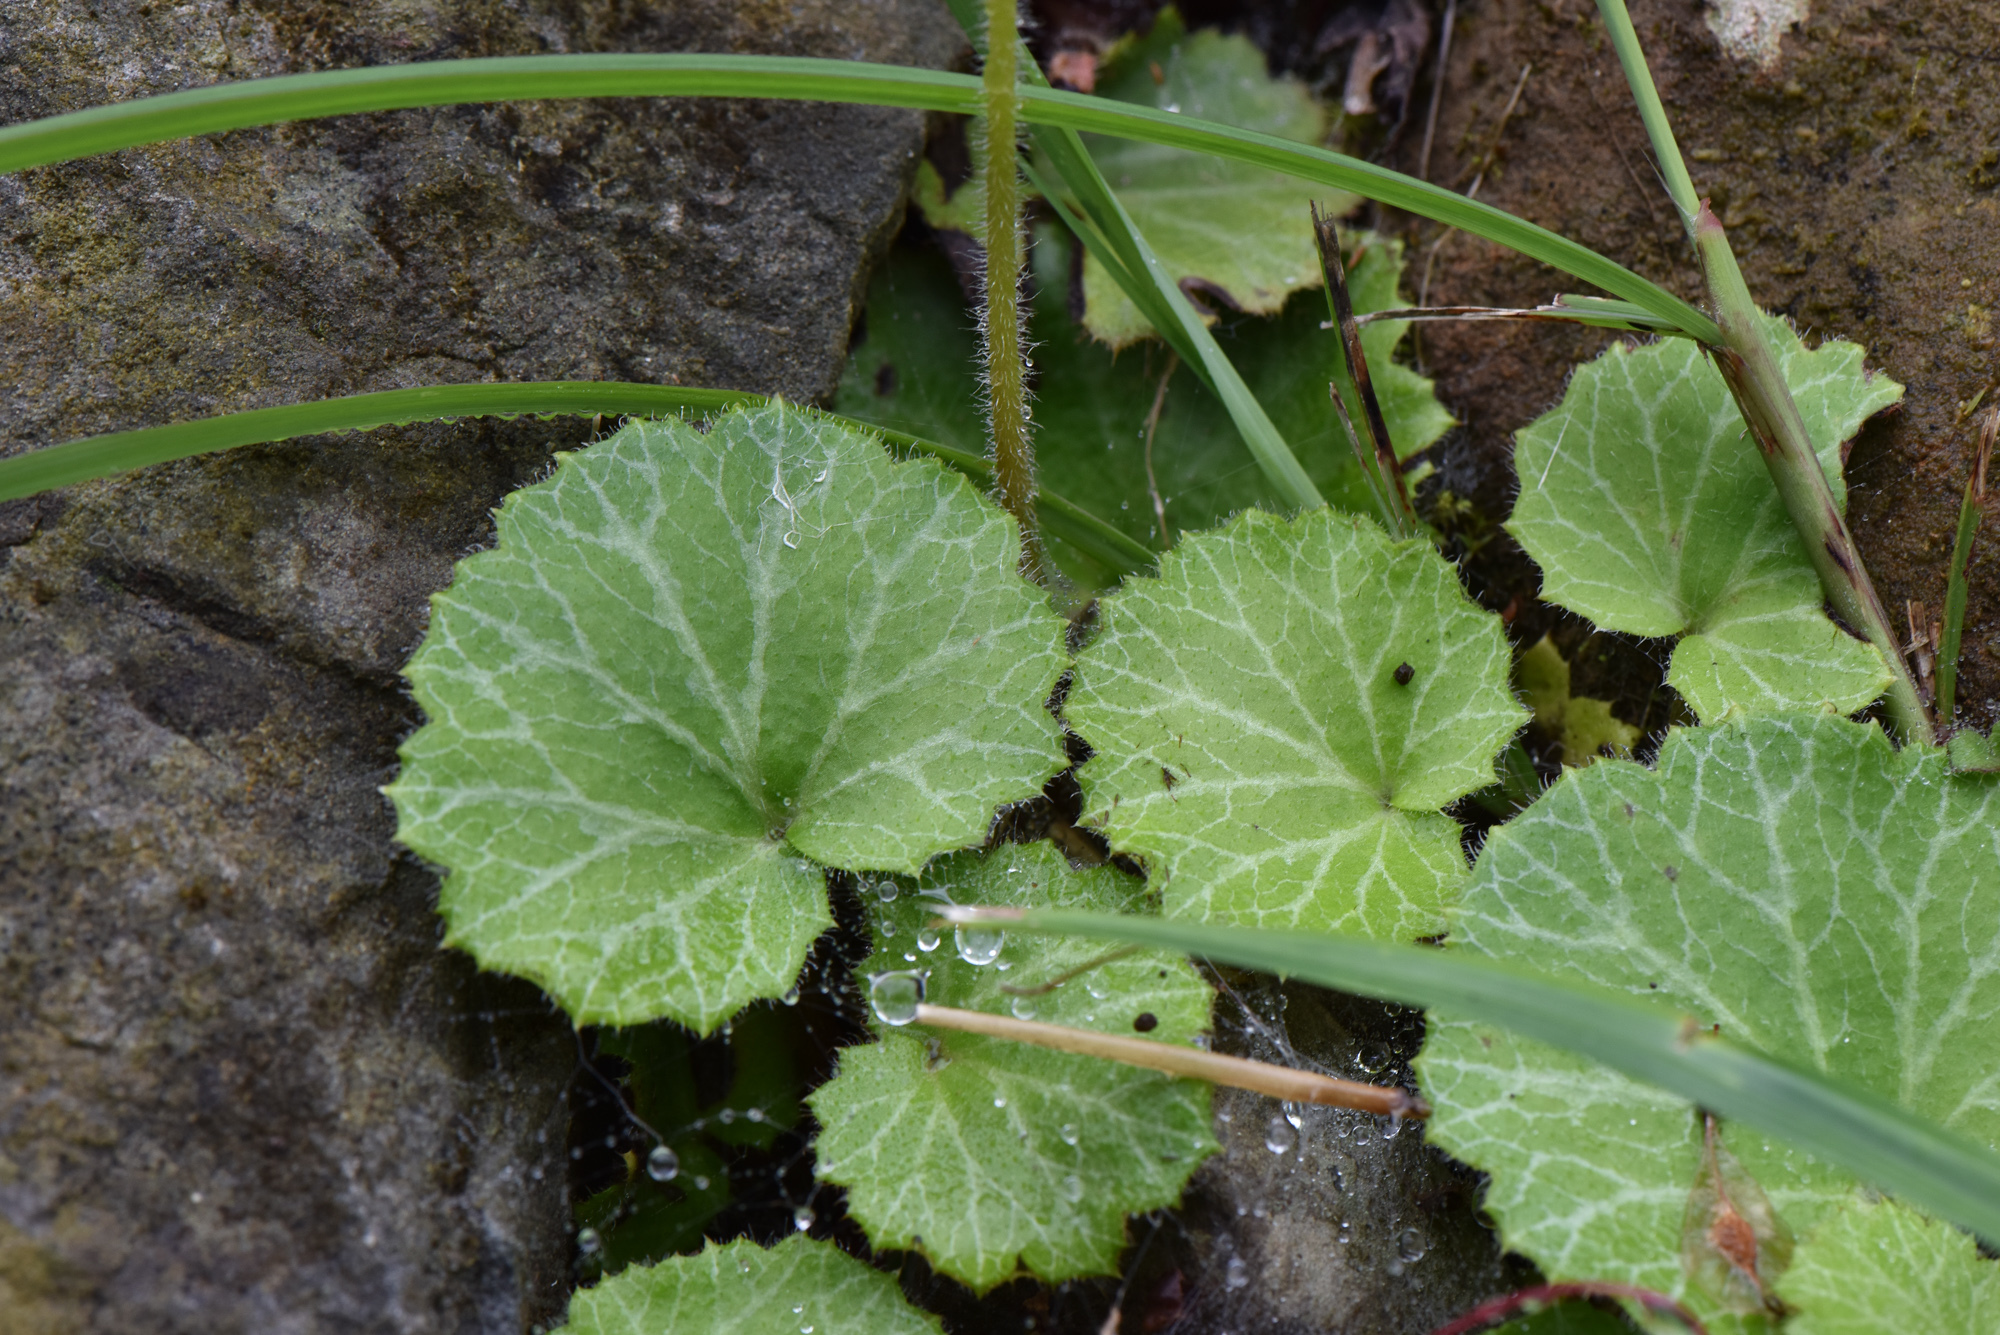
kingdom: Plantae
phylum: Tracheophyta
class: Magnoliopsida
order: Saxifragales
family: Saxifragaceae
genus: Saxifraga
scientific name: Saxifraga stolonifera
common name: Creeping saxifrage
